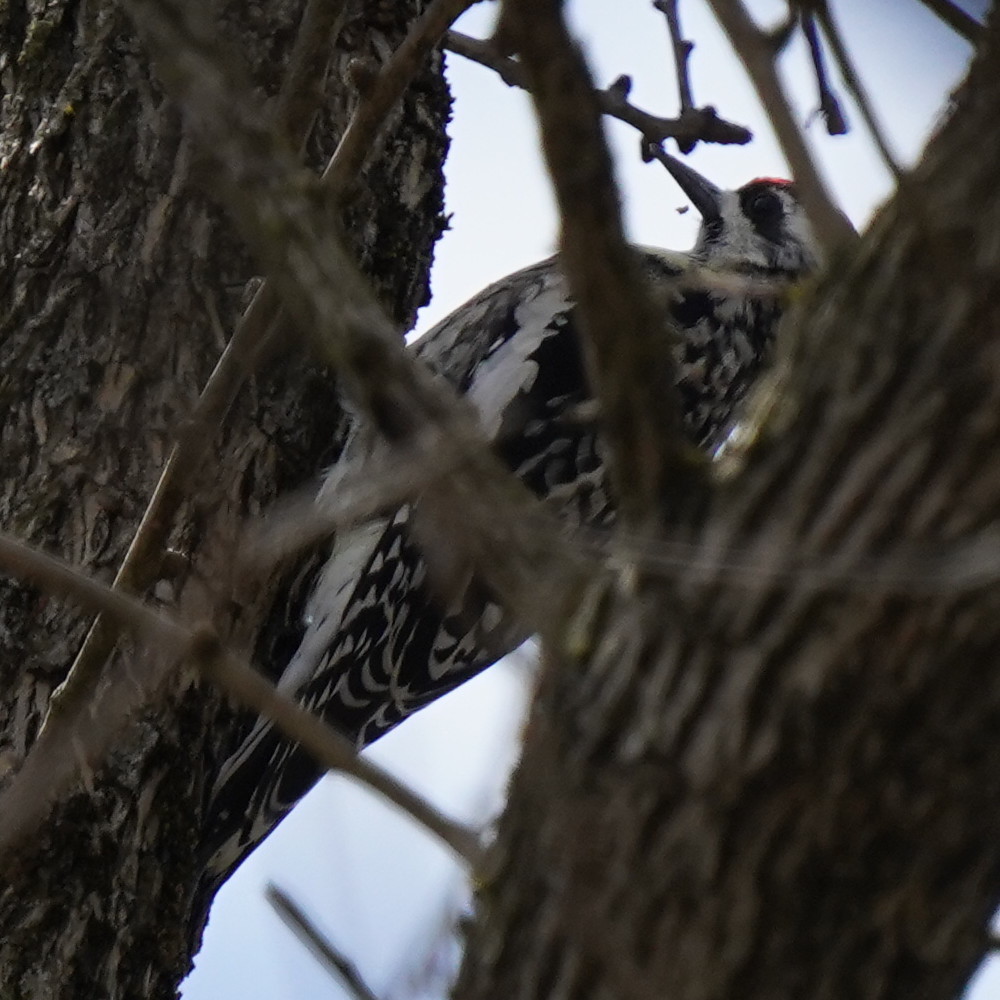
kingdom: Animalia
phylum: Chordata
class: Aves
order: Piciformes
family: Picidae
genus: Sphyrapicus
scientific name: Sphyrapicus varius
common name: Yellow-bellied sapsucker
